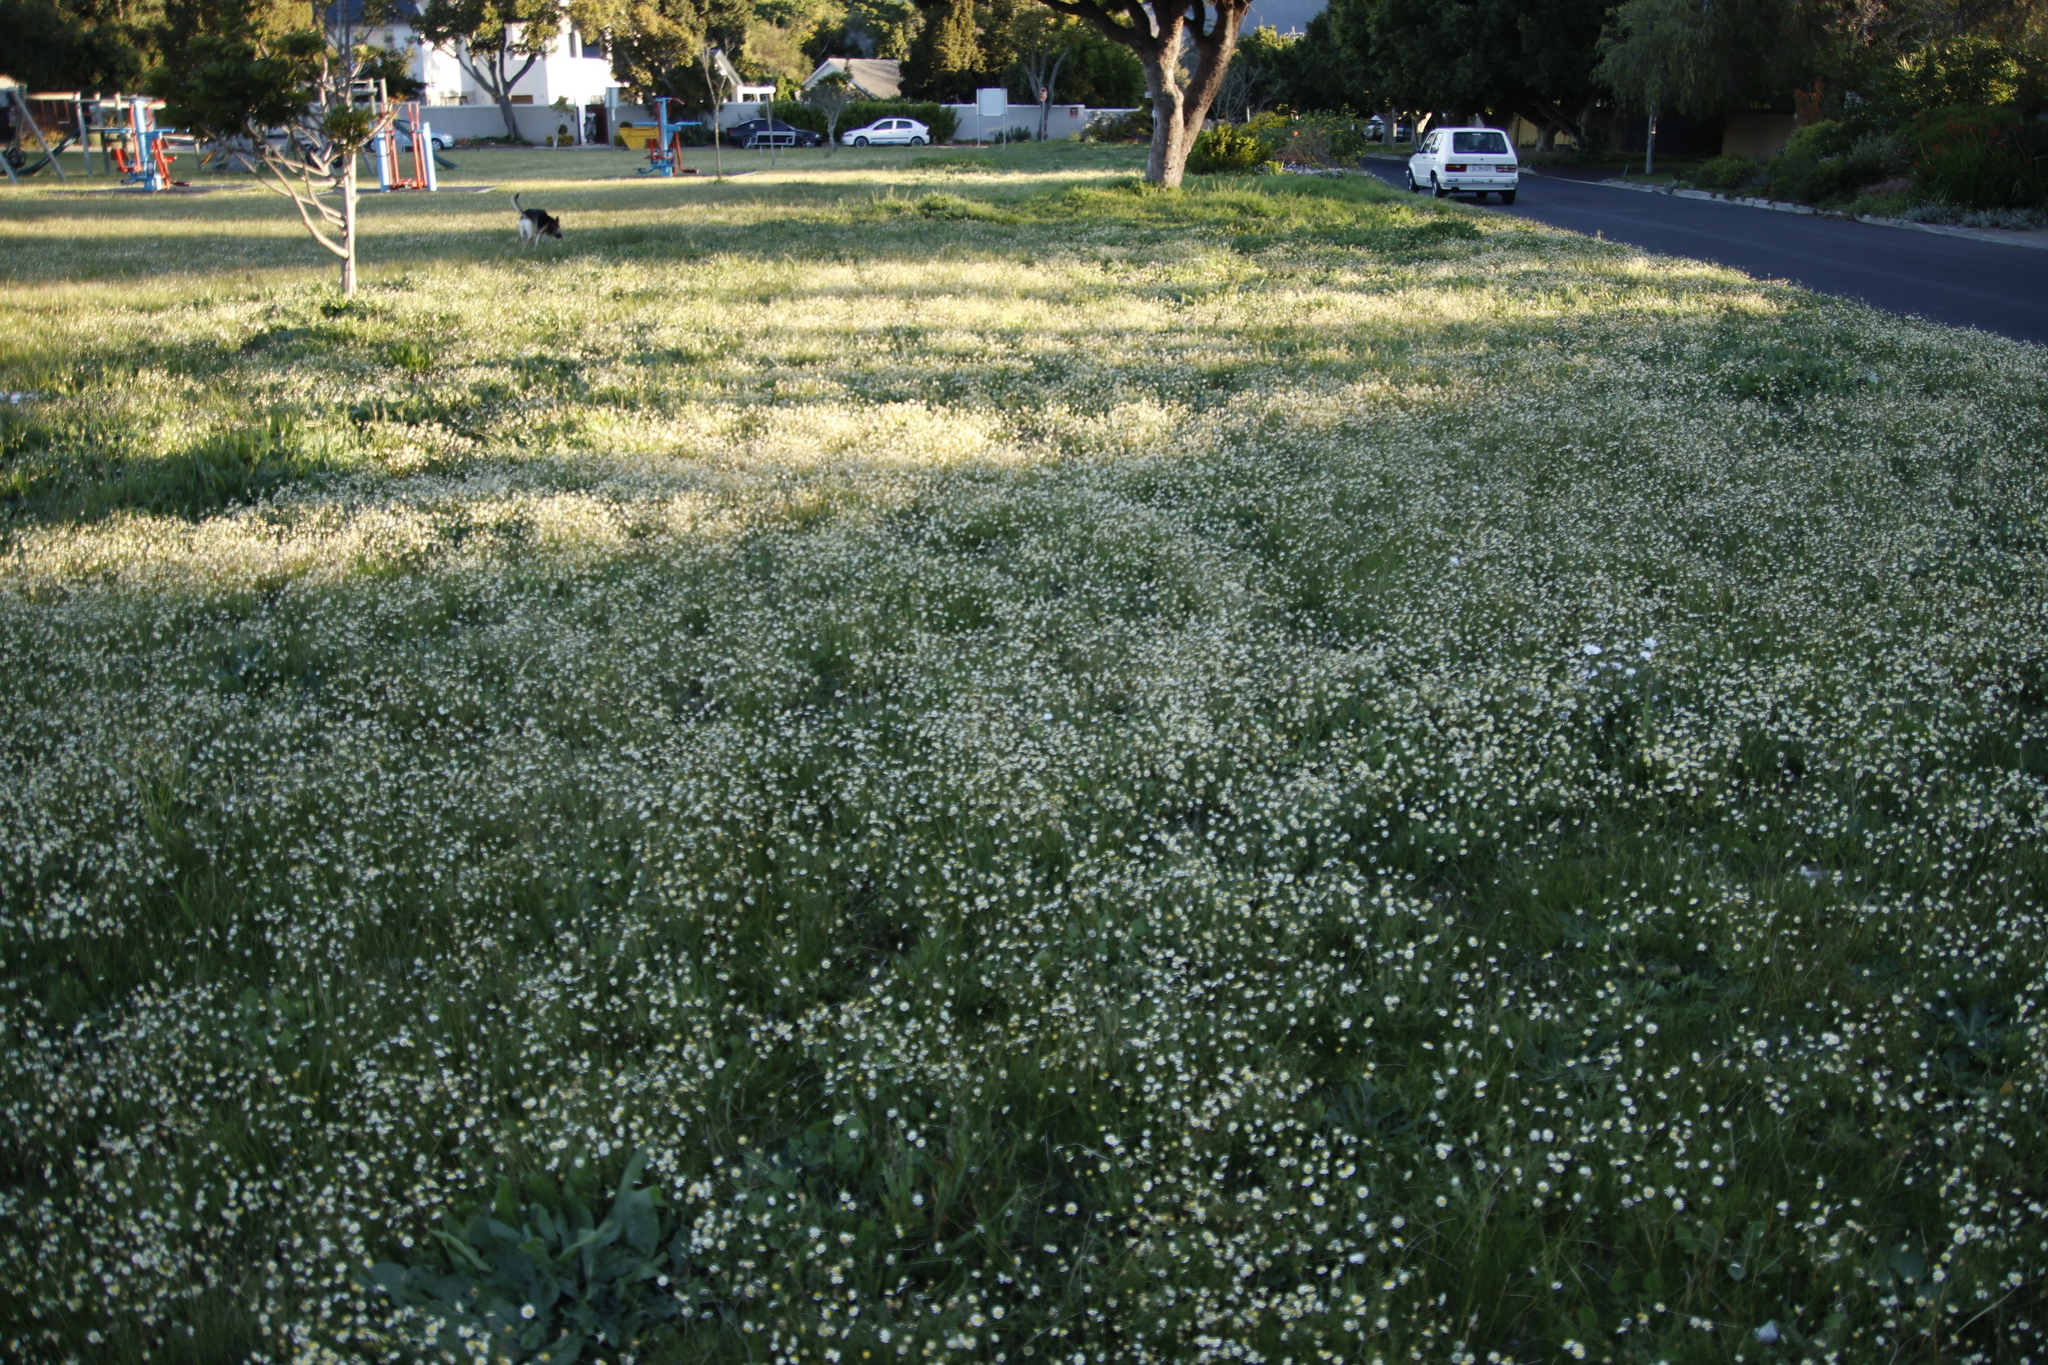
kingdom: Plantae
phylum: Tracheophyta
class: Magnoliopsida
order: Asterales
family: Asteraceae
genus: Cotula
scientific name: Cotula turbinata
